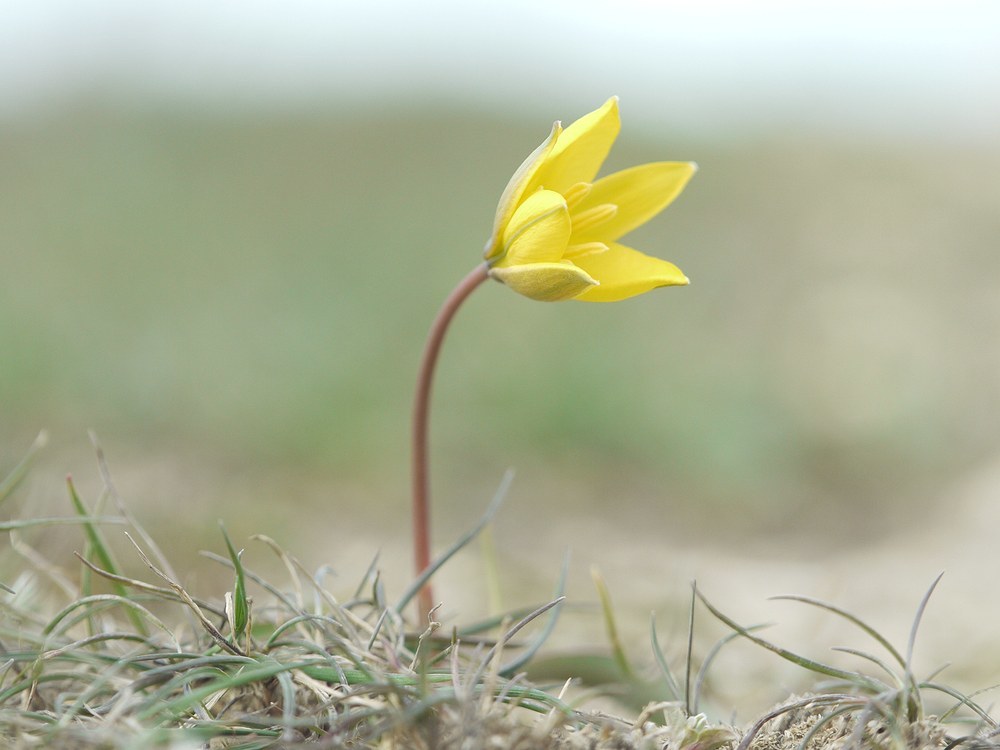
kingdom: Plantae
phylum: Tracheophyta
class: Liliopsida
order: Liliales
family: Liliaceae
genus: Tulipa
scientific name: Tulipa sylvestris
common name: Wild tulip
